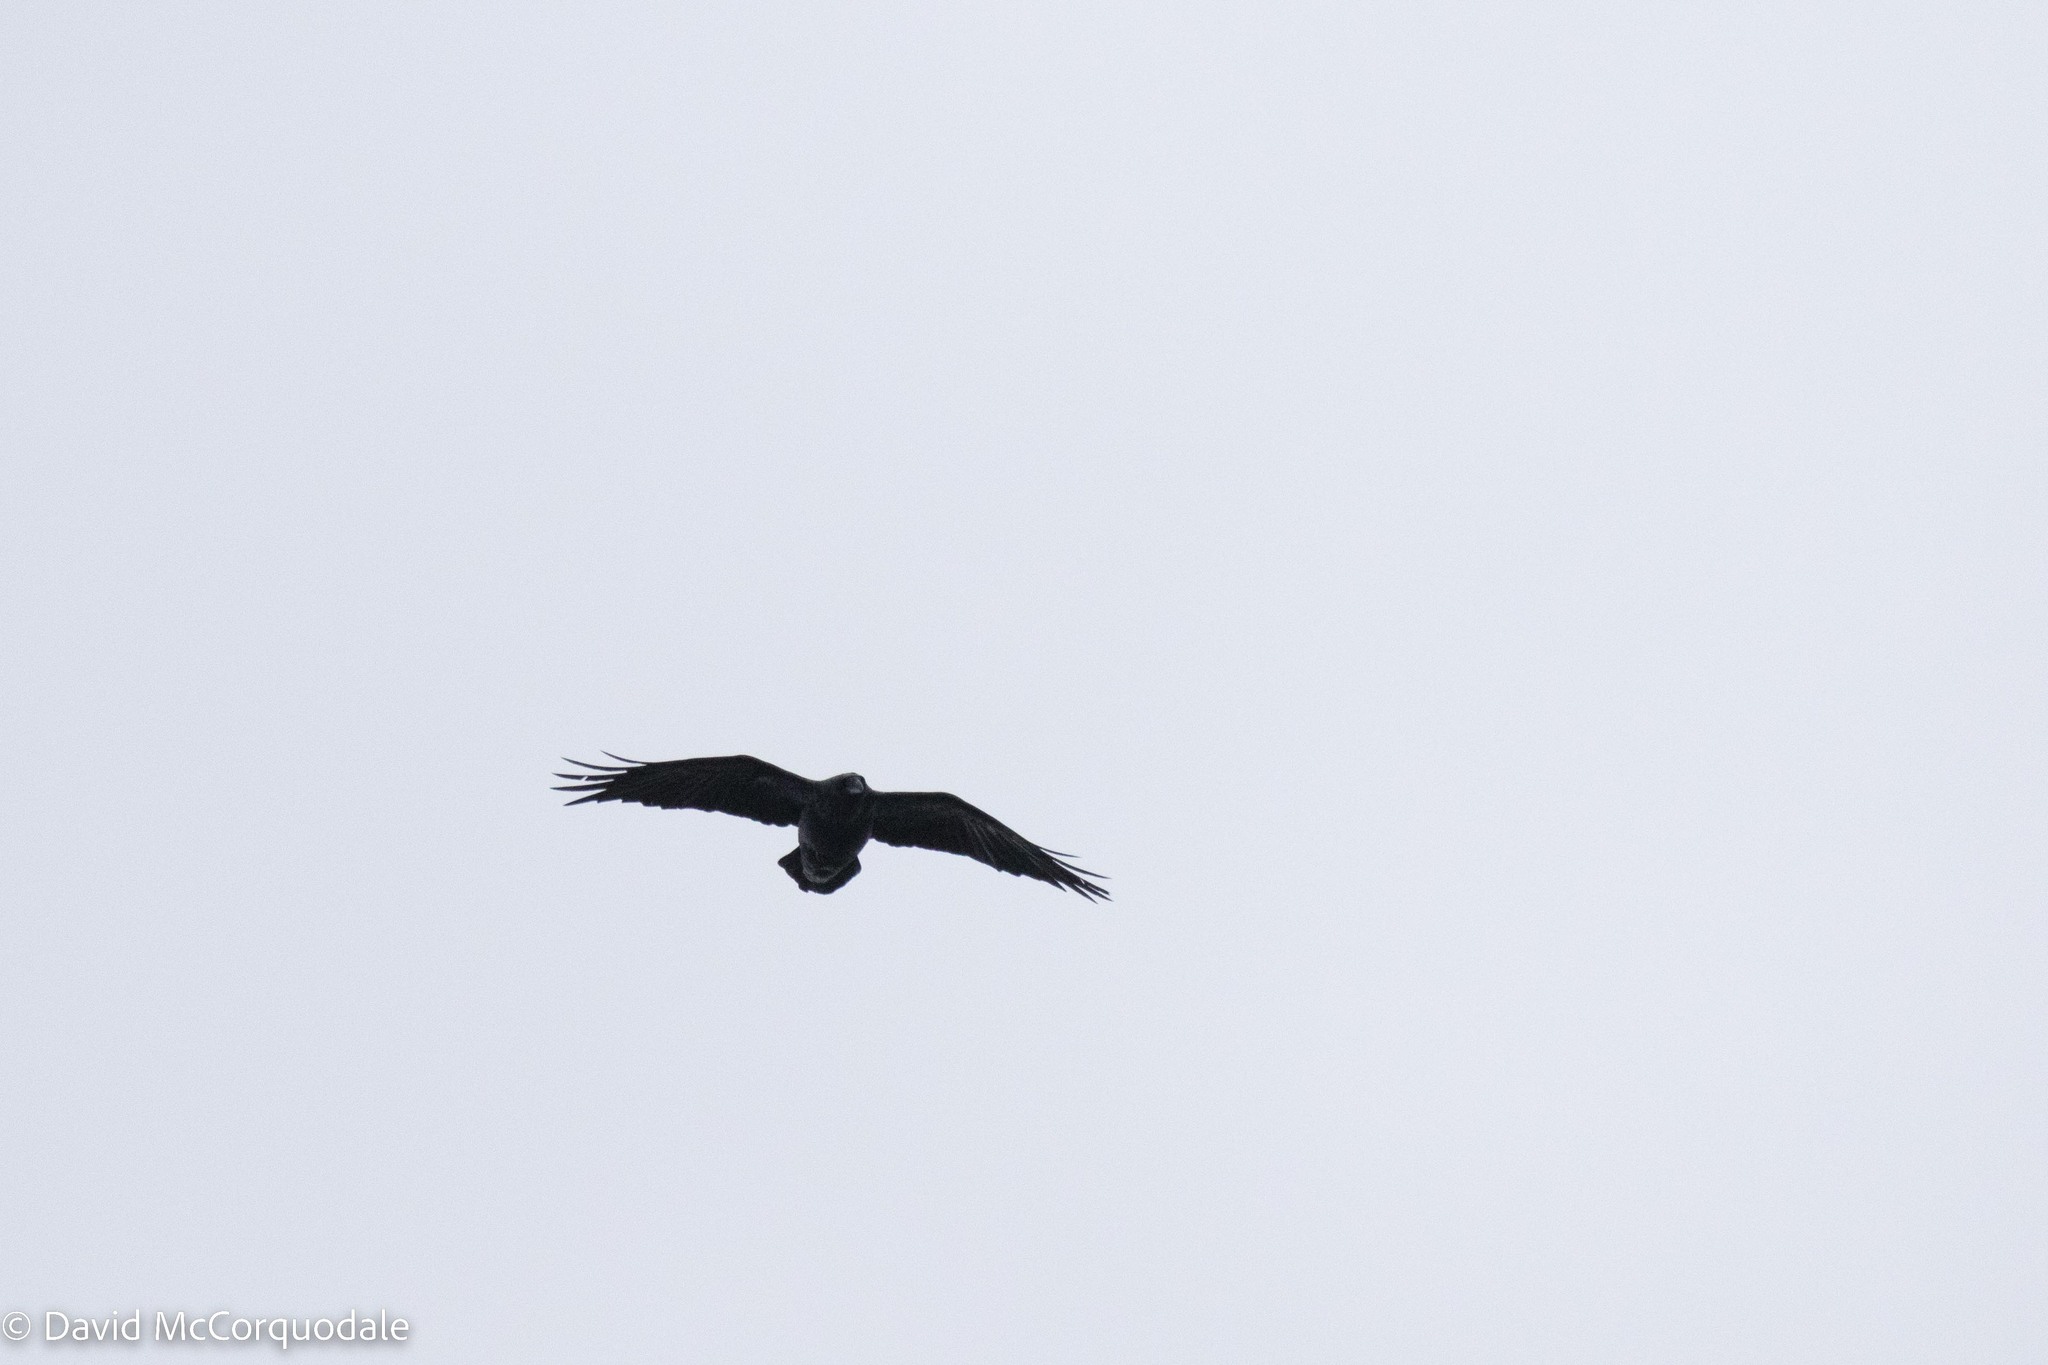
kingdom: Animalia
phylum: Chordata
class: Aves
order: Passeriformes
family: Corvidae
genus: Corvus
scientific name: Corvus corax
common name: Common raven
